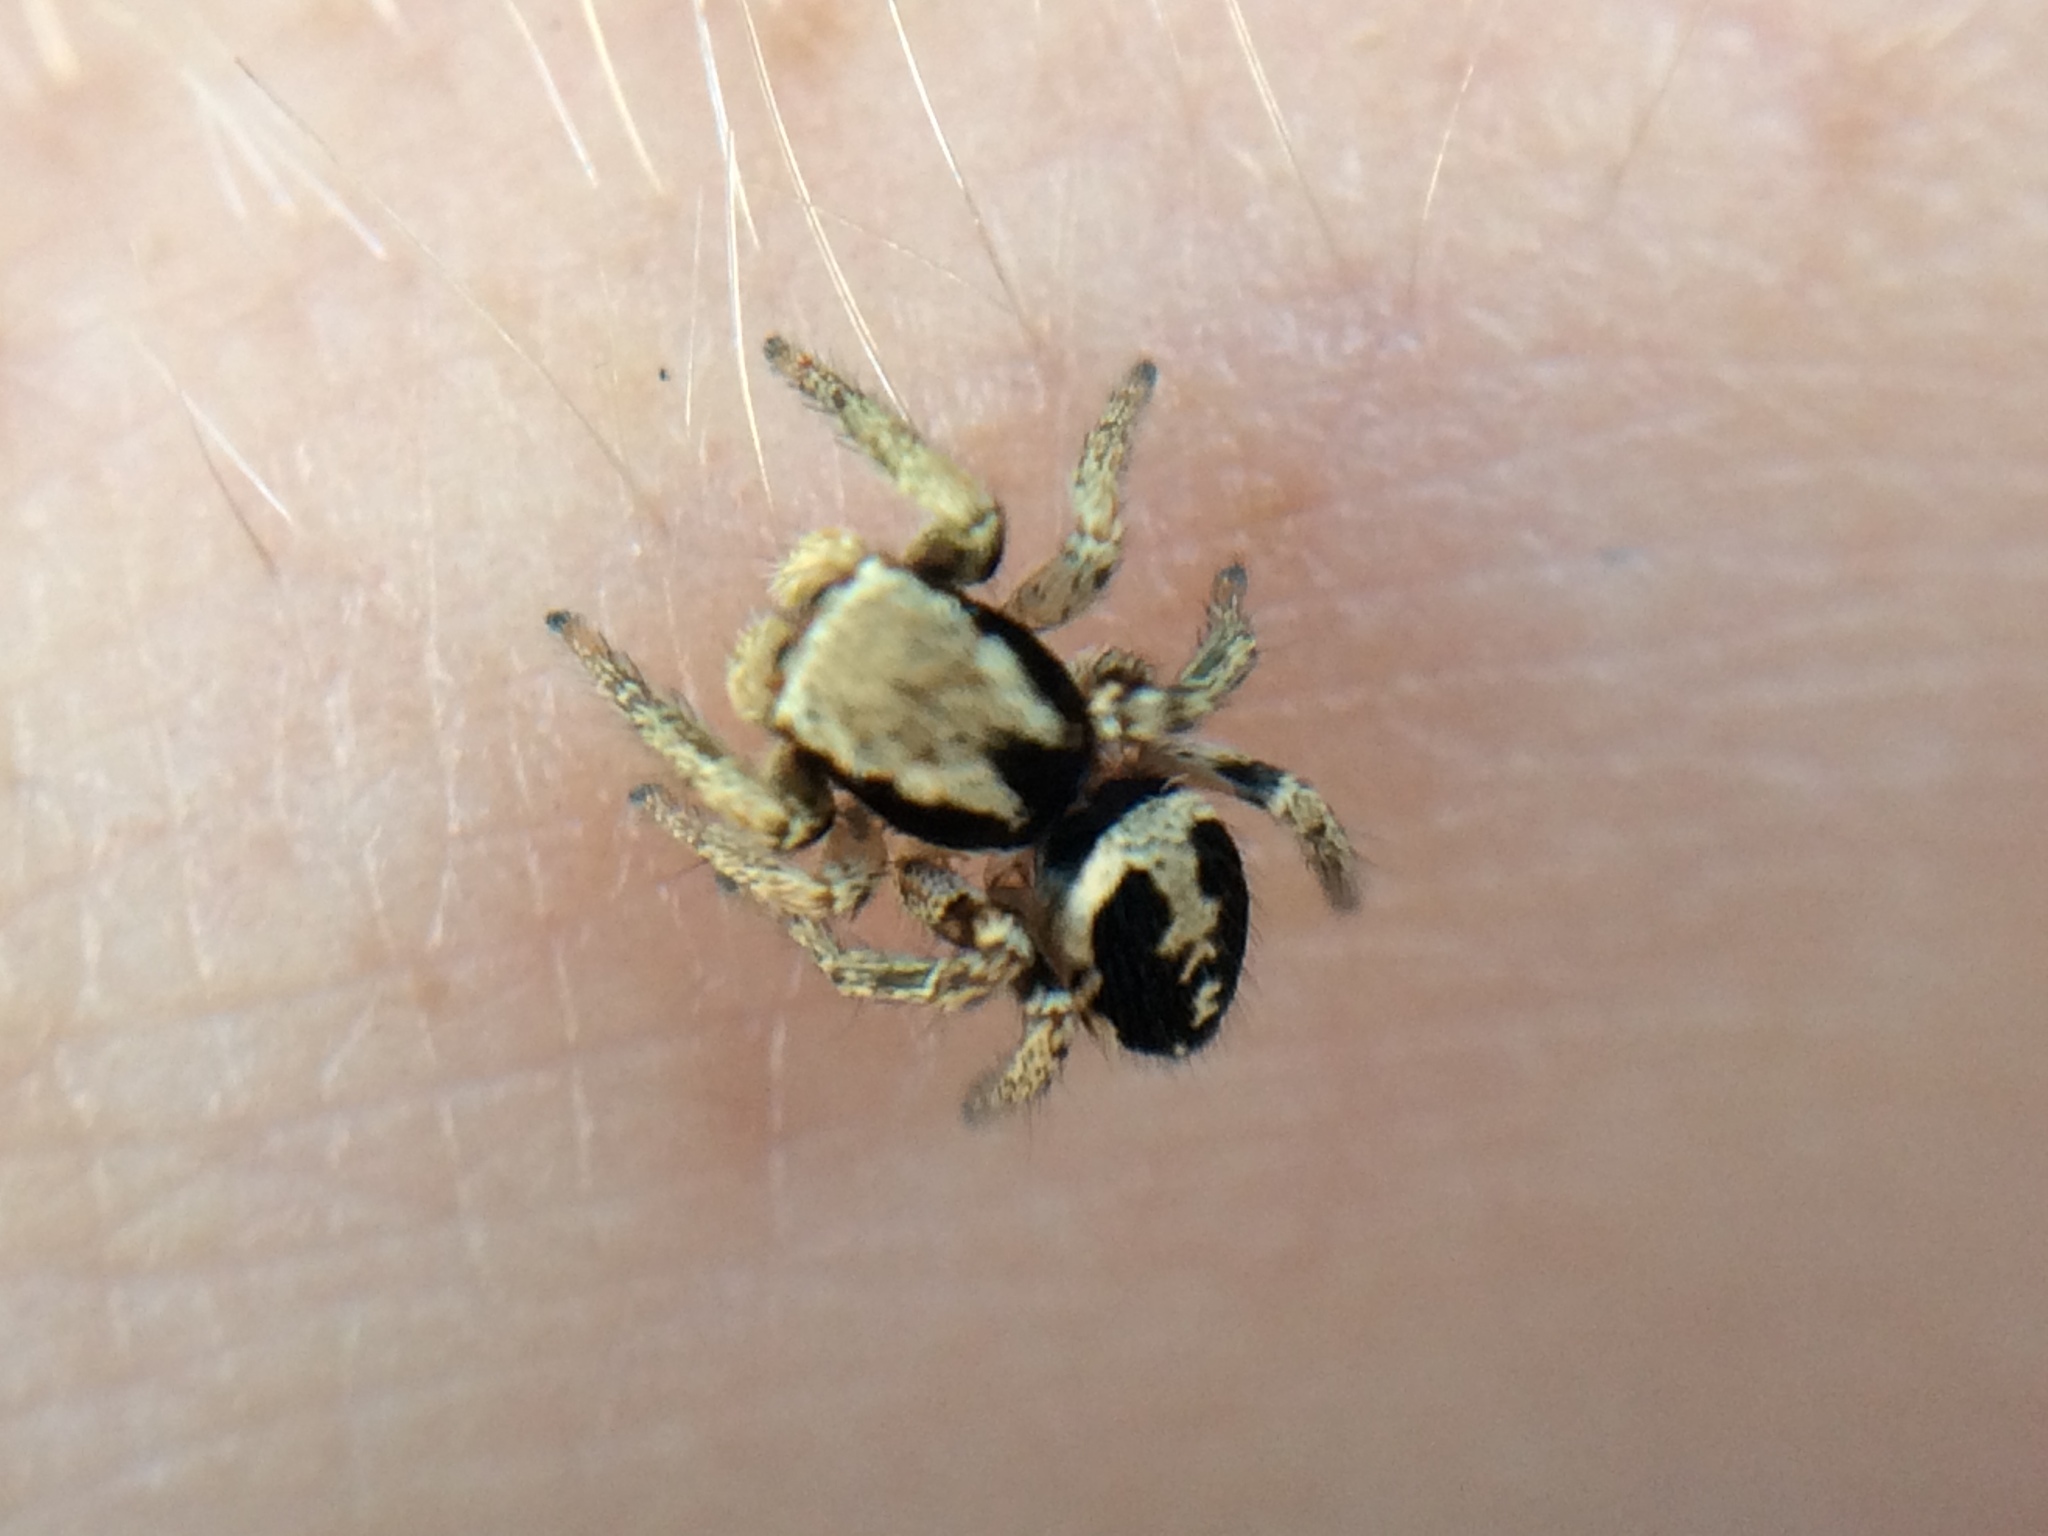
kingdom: Animalia
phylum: Arthropoda
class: Arachnida
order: Araneae
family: Salticidae
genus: Habronattus
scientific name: Habronattus pyrrithrix
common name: Jumping spider
